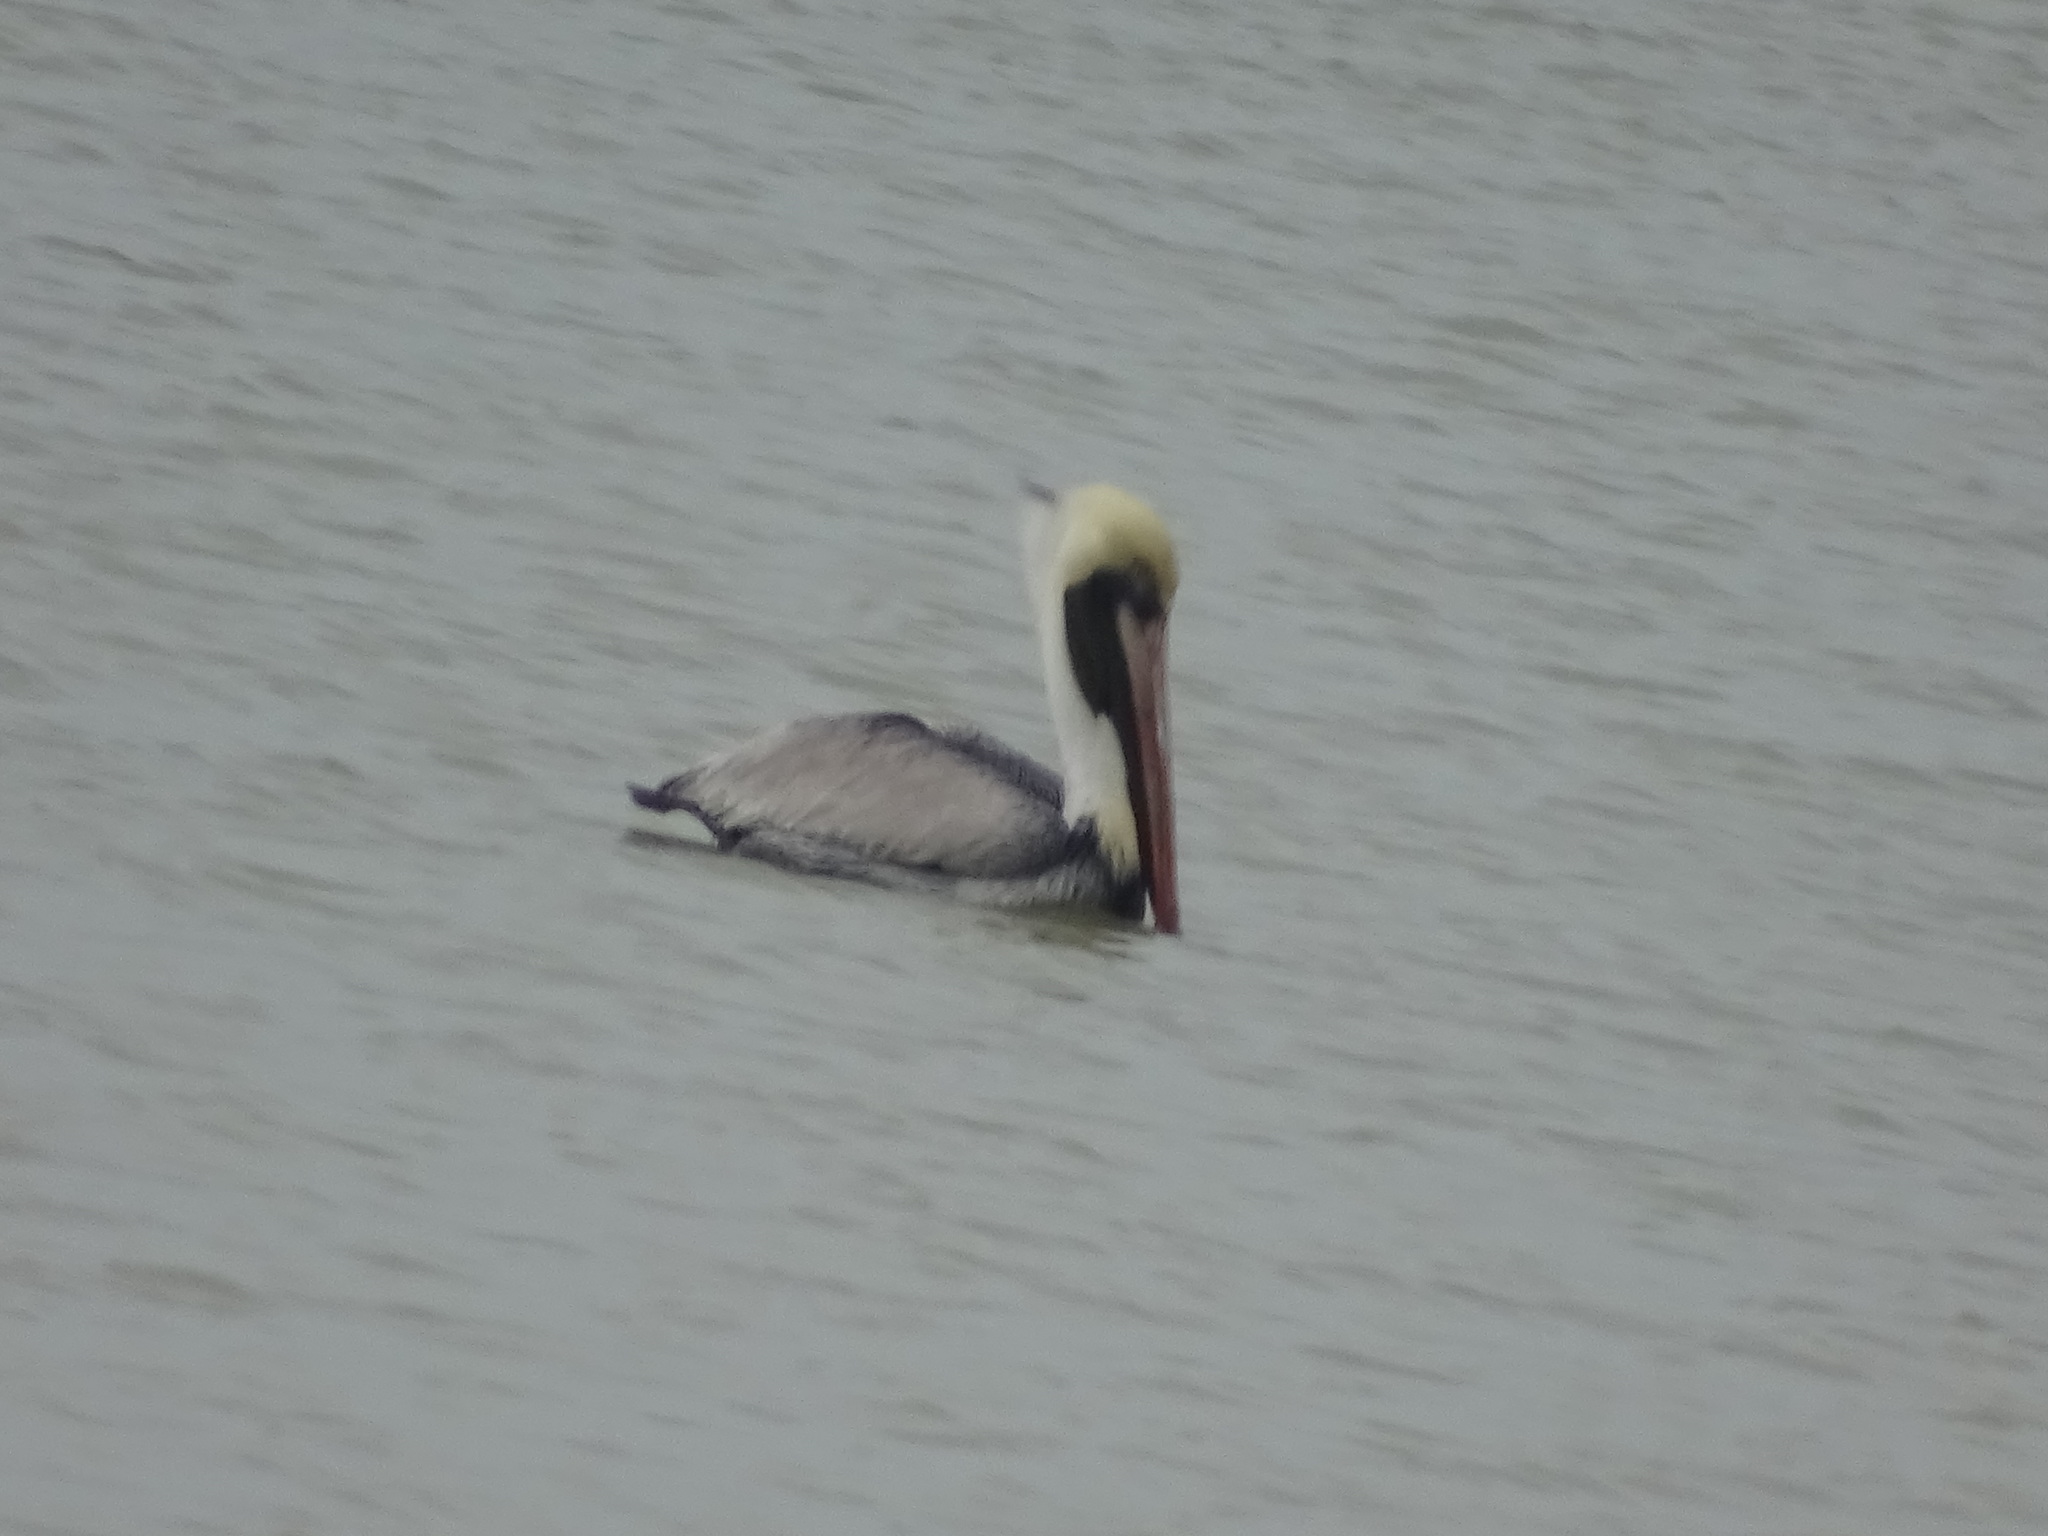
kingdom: Animalia
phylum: Chordata
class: Aves
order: Pelecaniformes
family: Pelecanidae
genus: Pelecanus
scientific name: Pelecanus occidentalis
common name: Brown pelican
